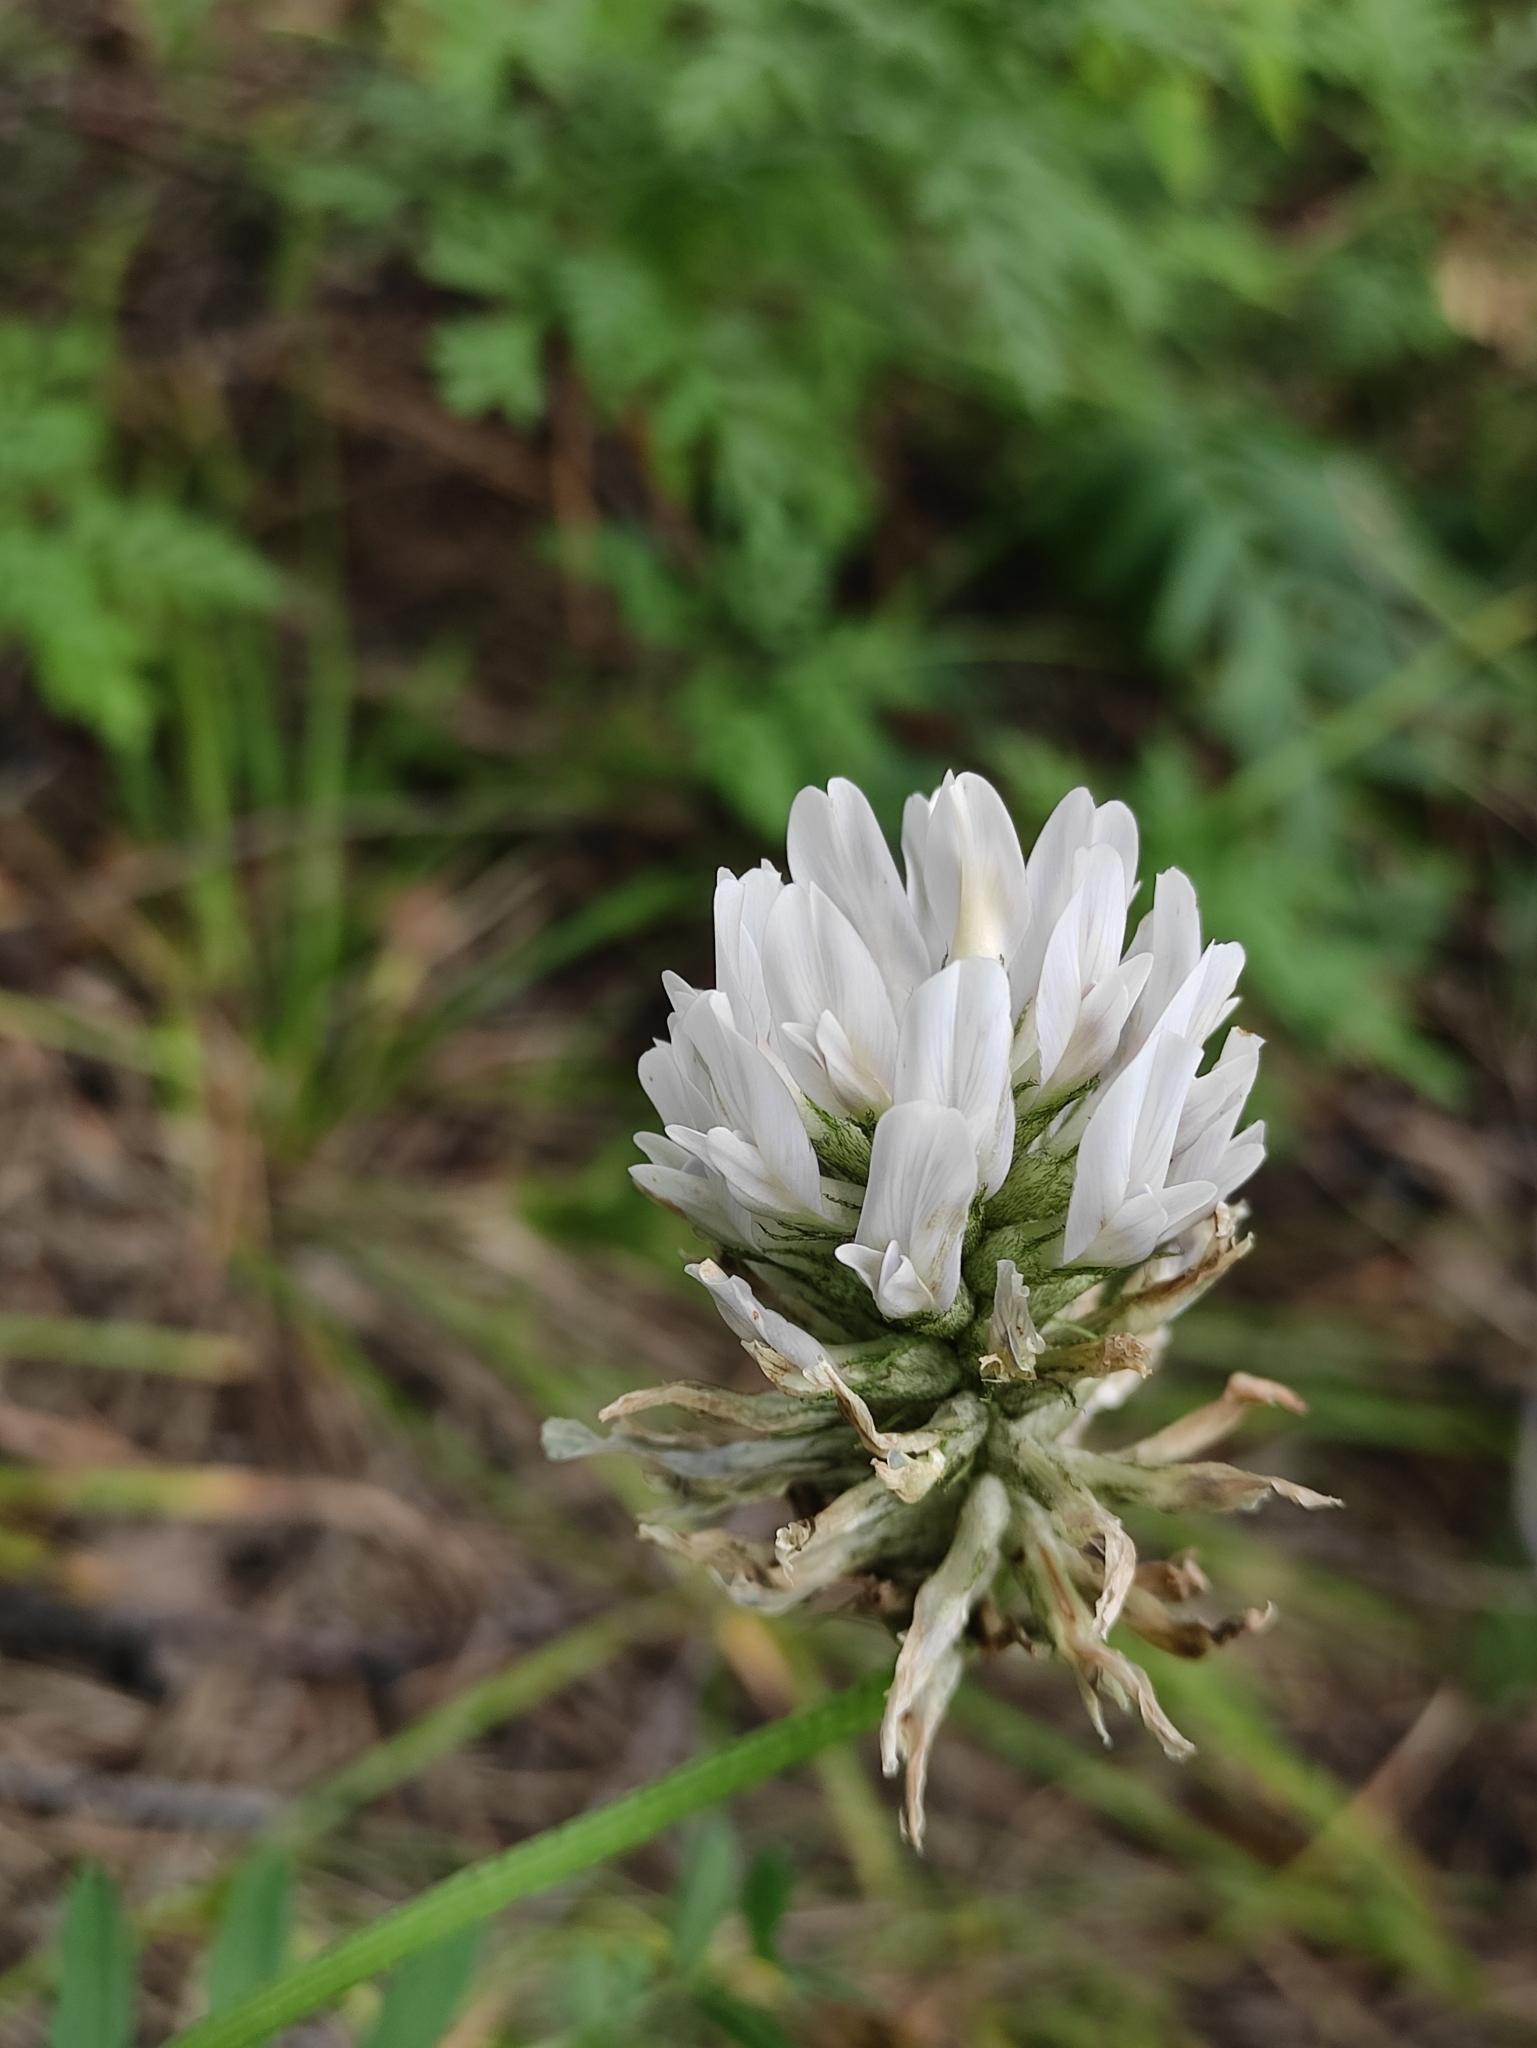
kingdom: Plantae
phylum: Tracheophyta
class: Magnoliopsida
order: Fabales
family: Fabaceae
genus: Astragalus
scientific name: Astragalus laxmannii
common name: Laxmann's milk-vetch
